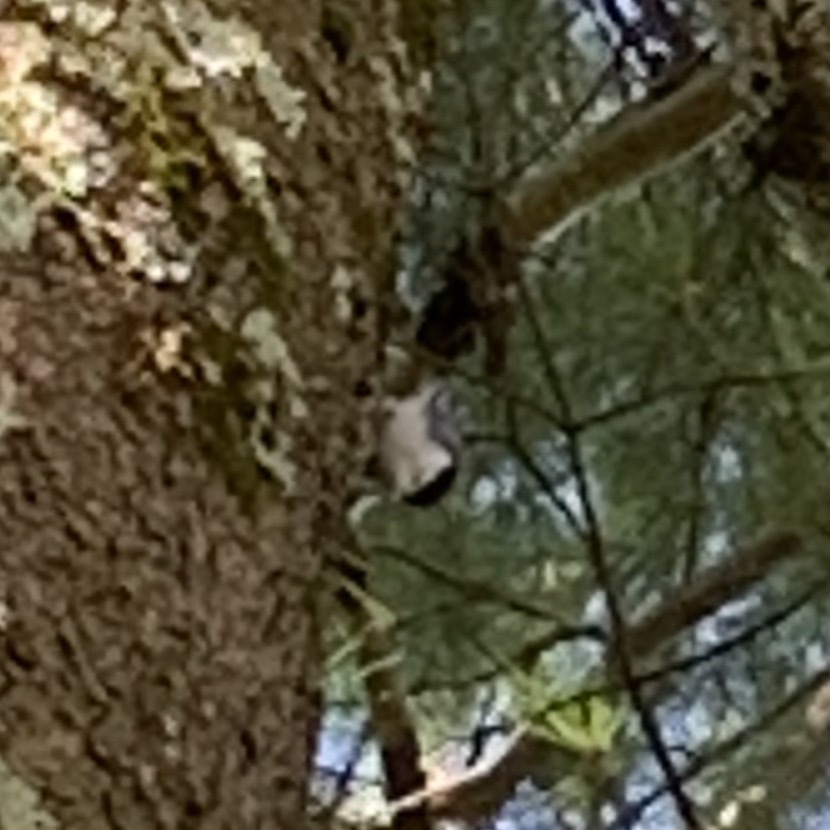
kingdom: Animalia
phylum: Chordata
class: Aves
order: Passeriformes
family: Sittidae
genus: Sitta
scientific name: Sitta carolinensis
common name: White-breasted nuthatch
